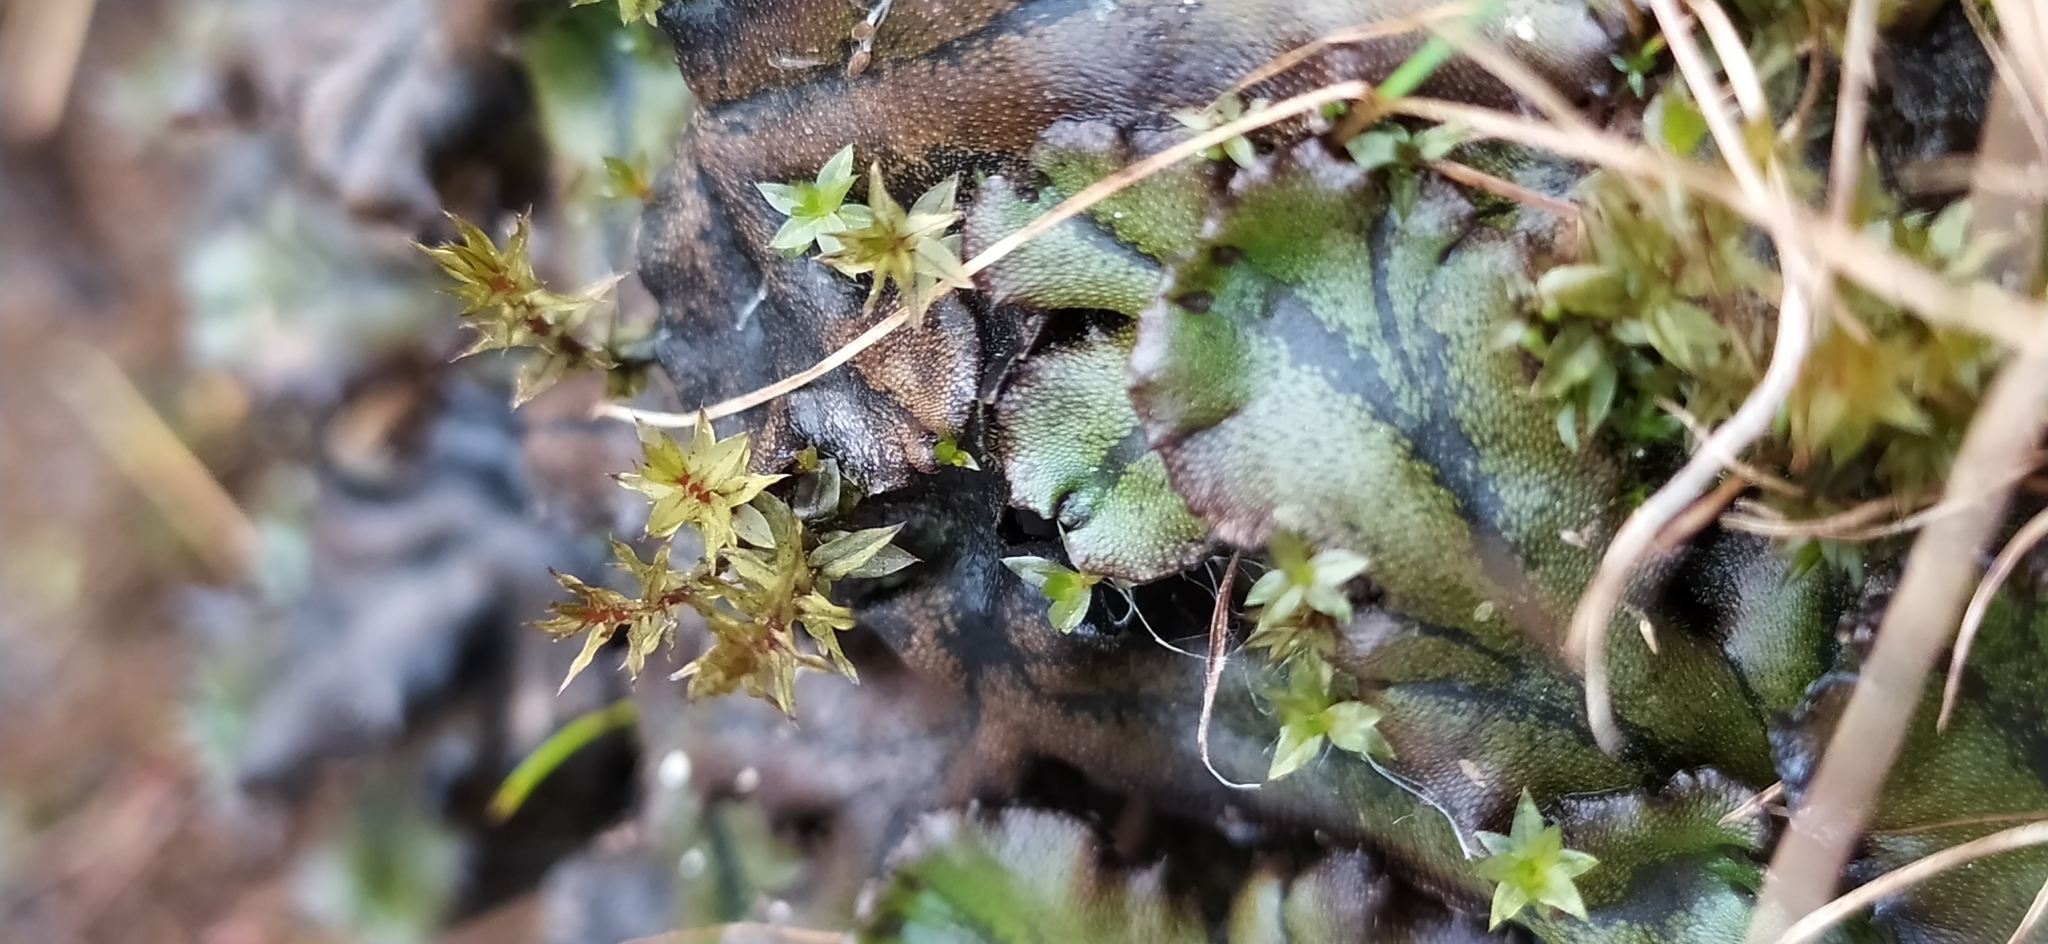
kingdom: Plantae
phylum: Marchantiophyta
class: Marchantiopsida
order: Marchantiales
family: Marchantiaceae
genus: Marchantia
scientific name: Marchantia polymorpha
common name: Common liverwort
